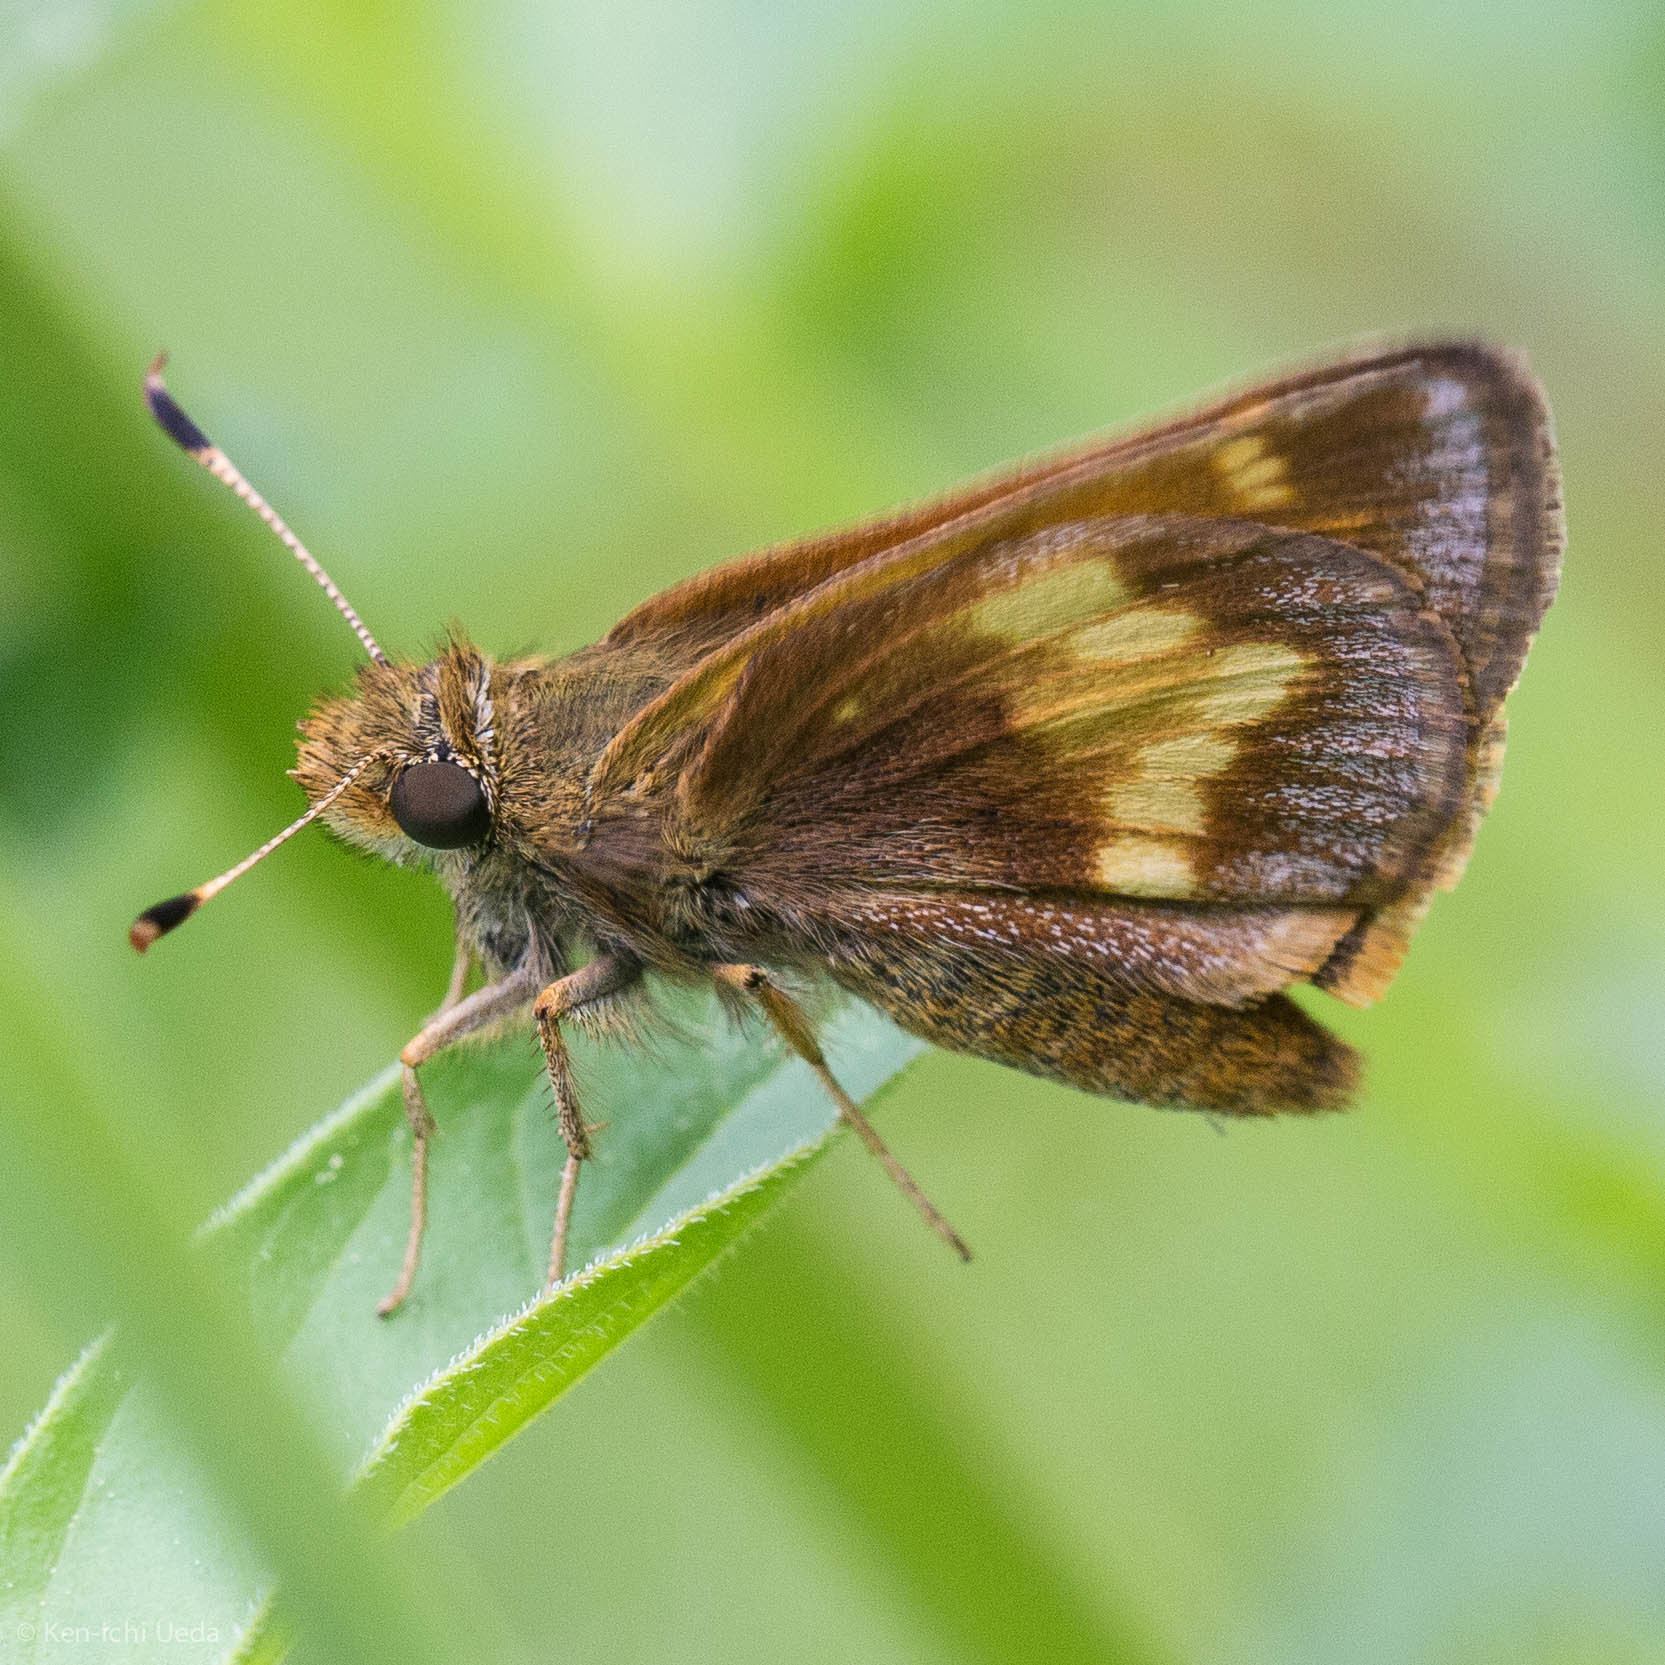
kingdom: Animalia
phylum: Arthropoda
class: Insecta
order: Lepidoptera
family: Hesperiidae
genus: Lon
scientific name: Lon hobomok
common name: Hobomok skipper
